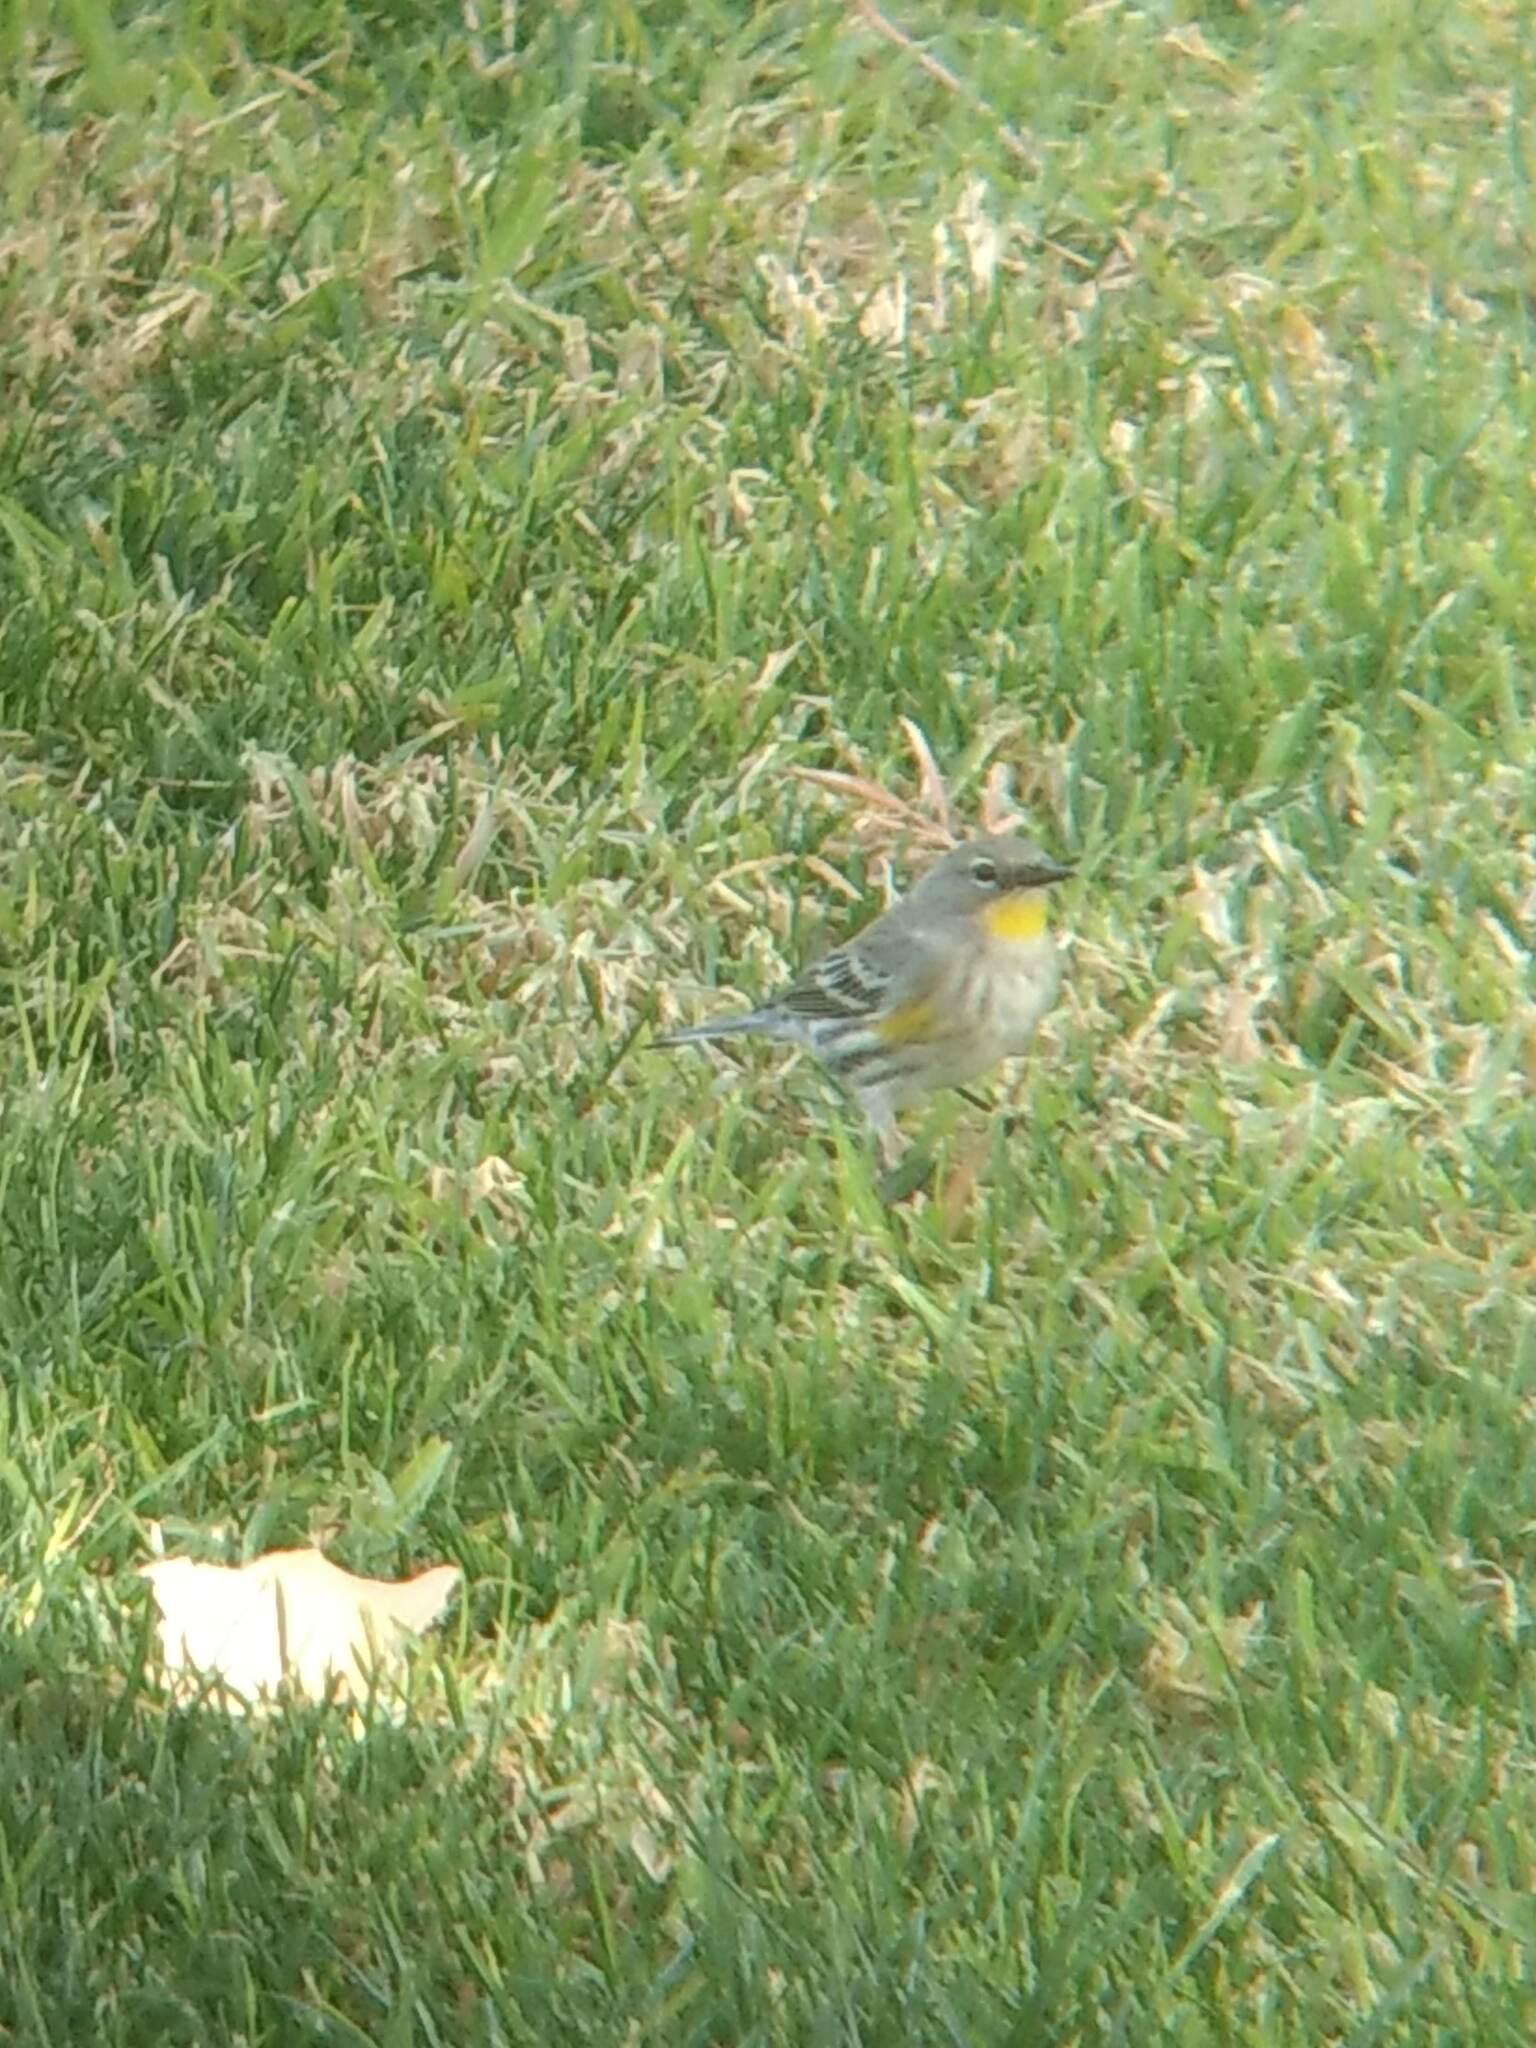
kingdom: Animalia
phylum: Chordata
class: Aves
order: Passeriformes
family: Parulidae
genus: Setophaga
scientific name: Setophaga coronata
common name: Myrtle warbler
